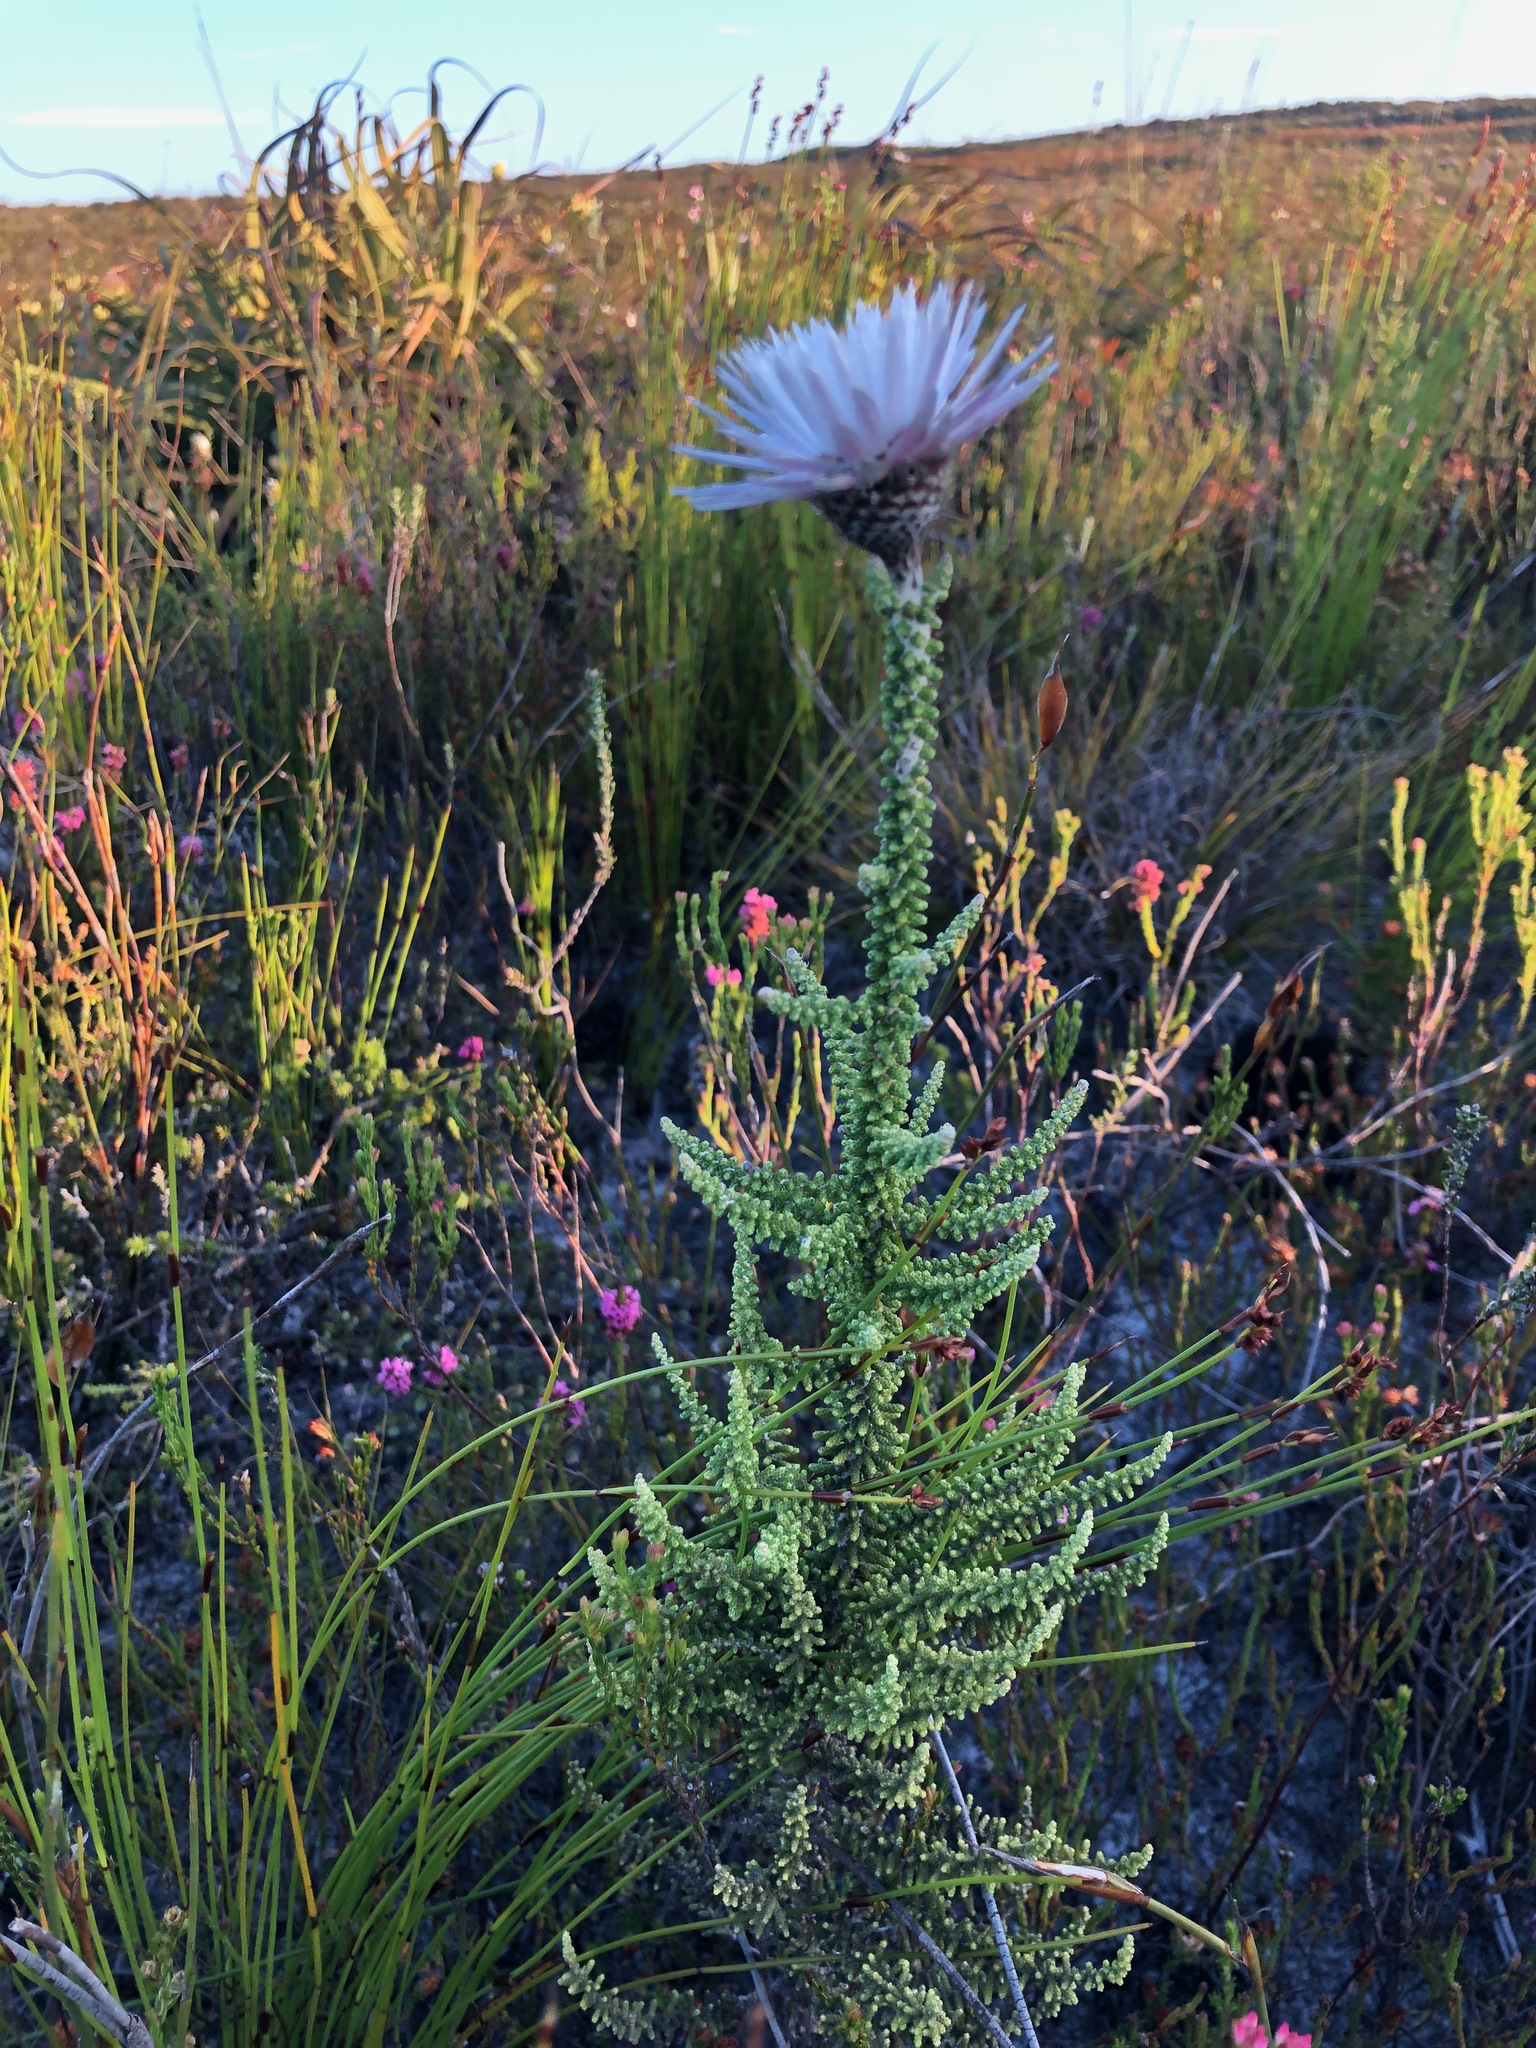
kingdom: Plantae
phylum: Tracheophyta
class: Magnoliopsida
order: Asterales
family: Asteraceae
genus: Phaenocoma
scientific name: Phaenocoma prolifera
